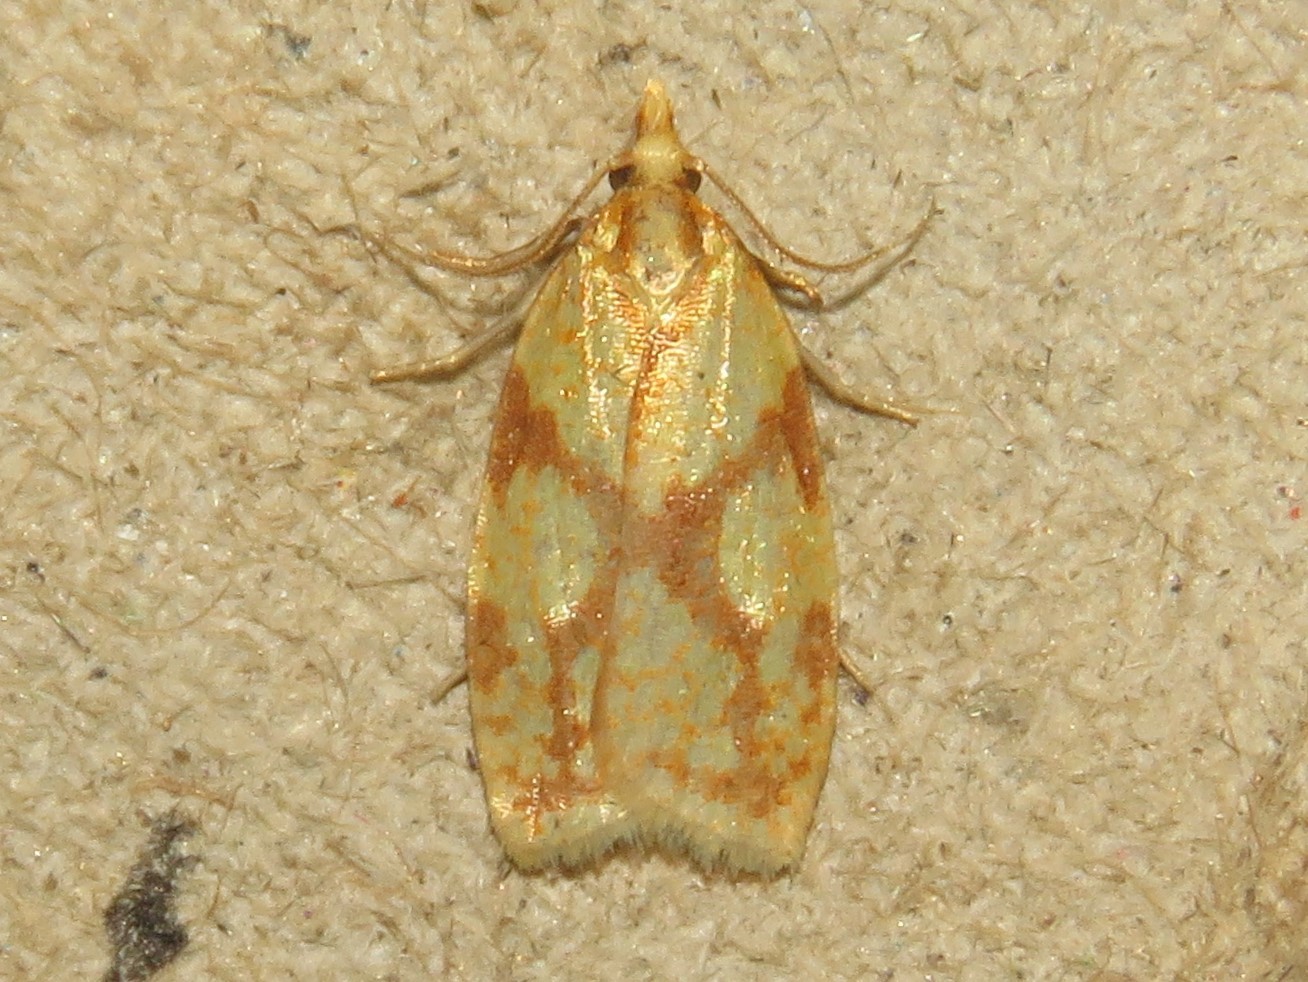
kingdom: Animalia
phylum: Arthropoda
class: Insecta
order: Lepidoptera
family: Tortricidae
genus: Sparganothis
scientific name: Sparganothis sulfureana
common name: Sparganothis fruitworm moth
